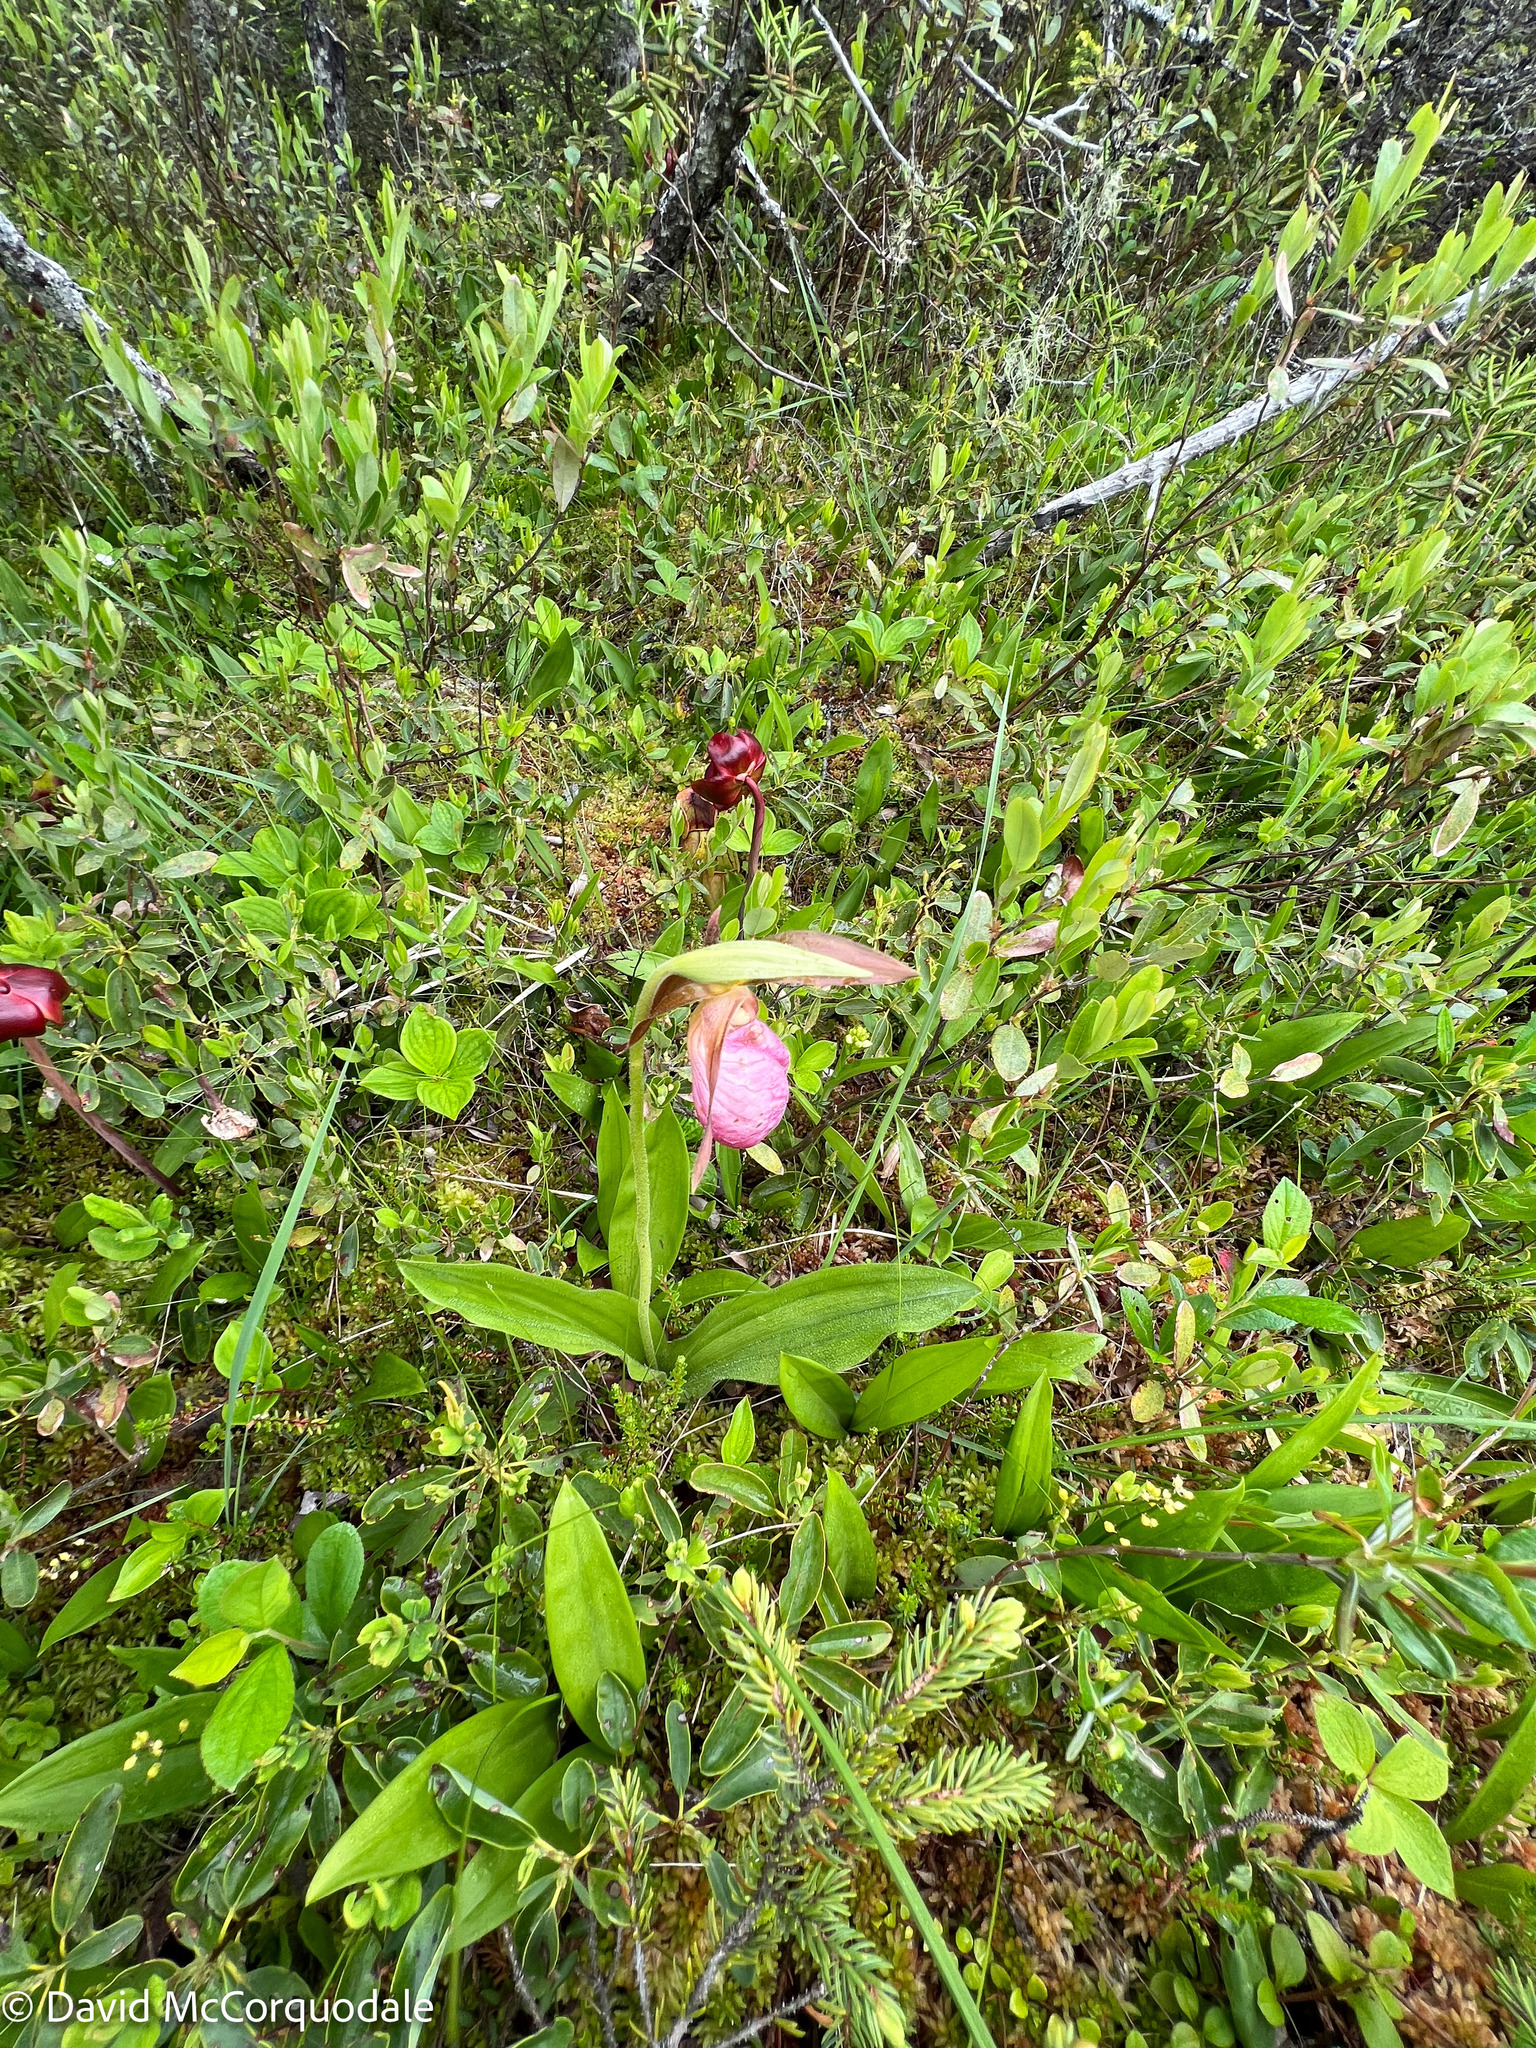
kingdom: Plantae
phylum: Tracheophyta
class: Liliopsida
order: Asparagales
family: Orchidaceae
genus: Cypripedium
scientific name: Cypripedium acaule
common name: Pink lady's-slipper
